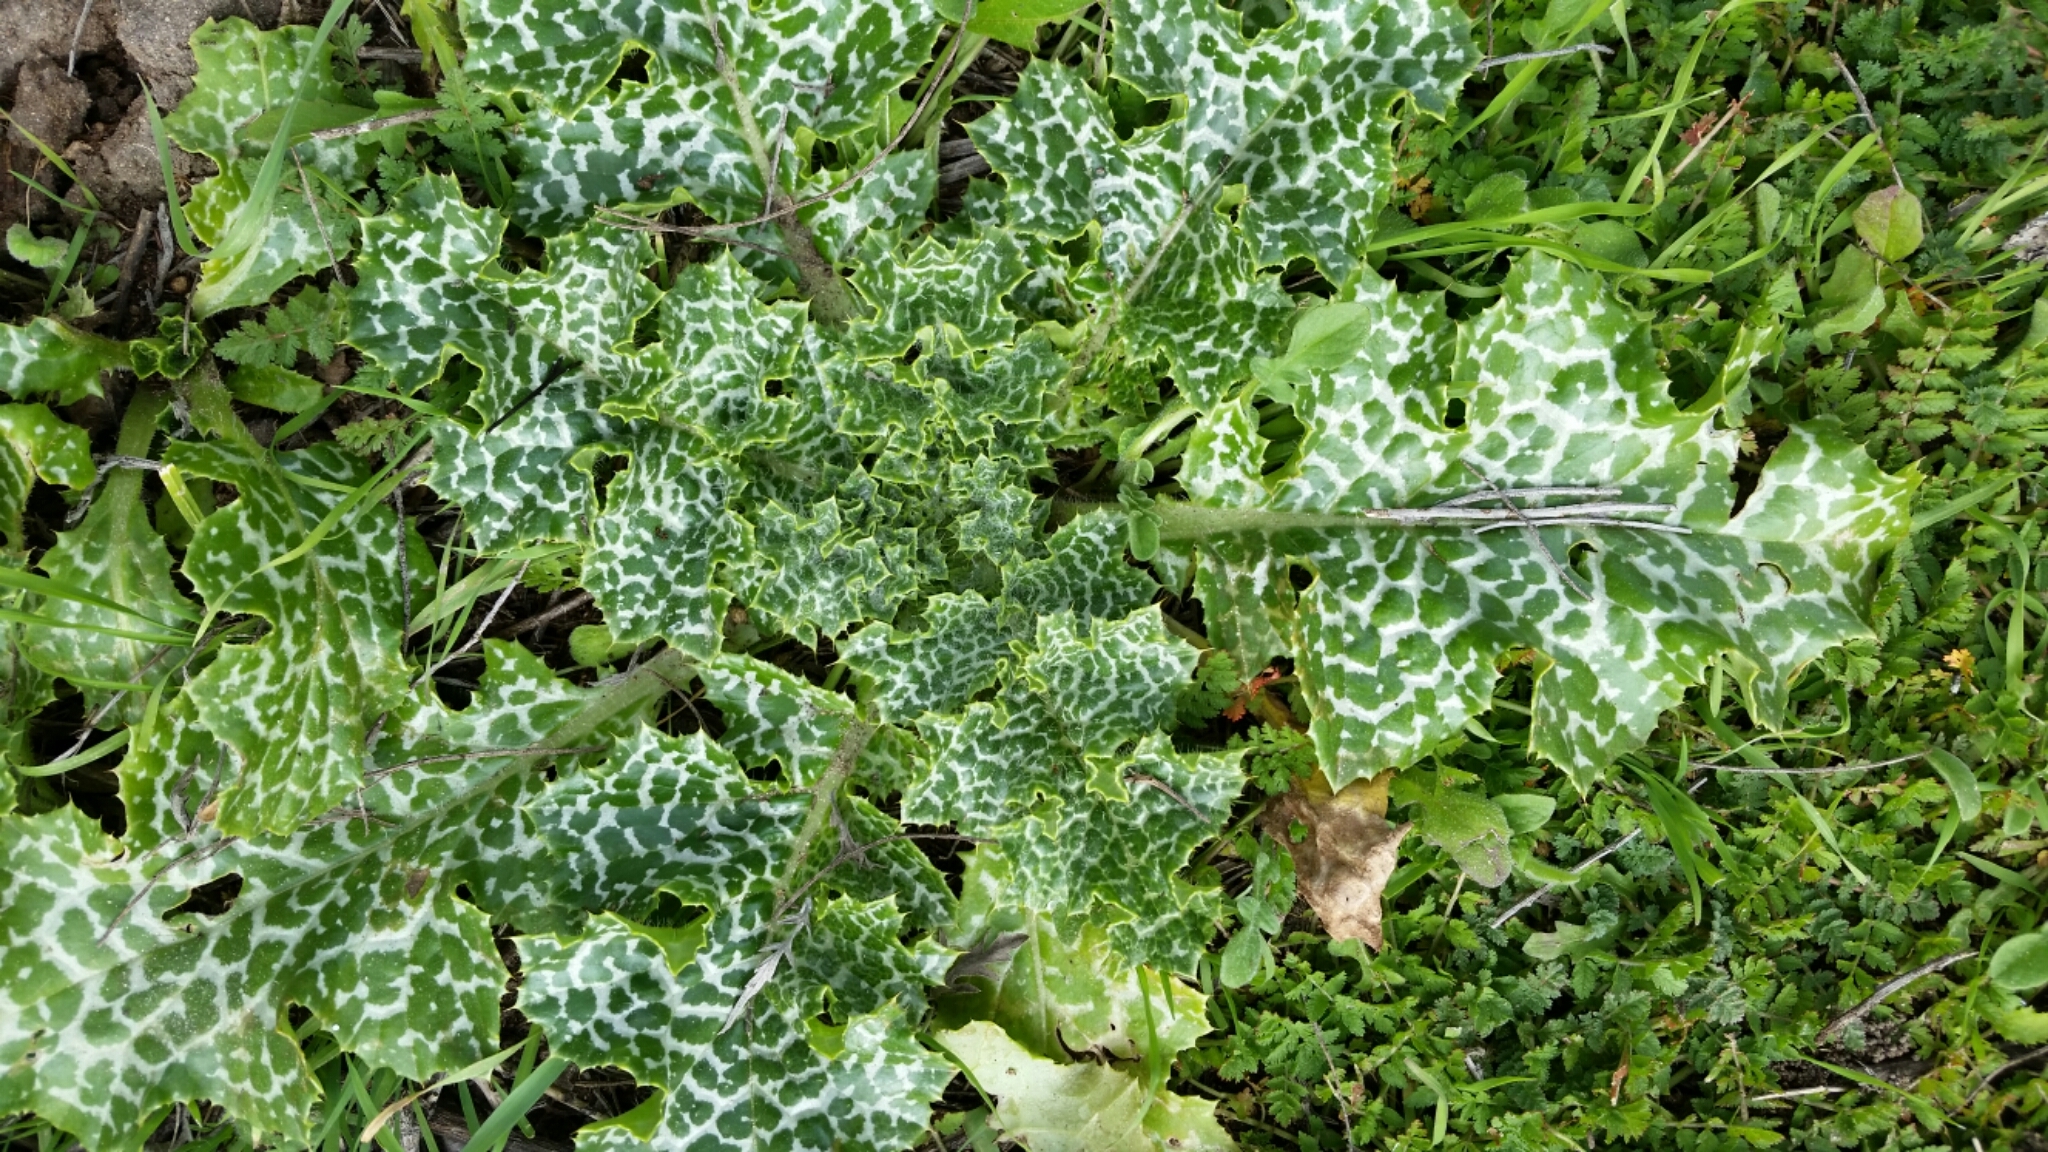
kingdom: Plantae
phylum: Tracheophyta
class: Magnoliopsida
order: Asterales
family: Asteraceae
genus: Silybum
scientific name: Silybum marianum
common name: Milk thistle
